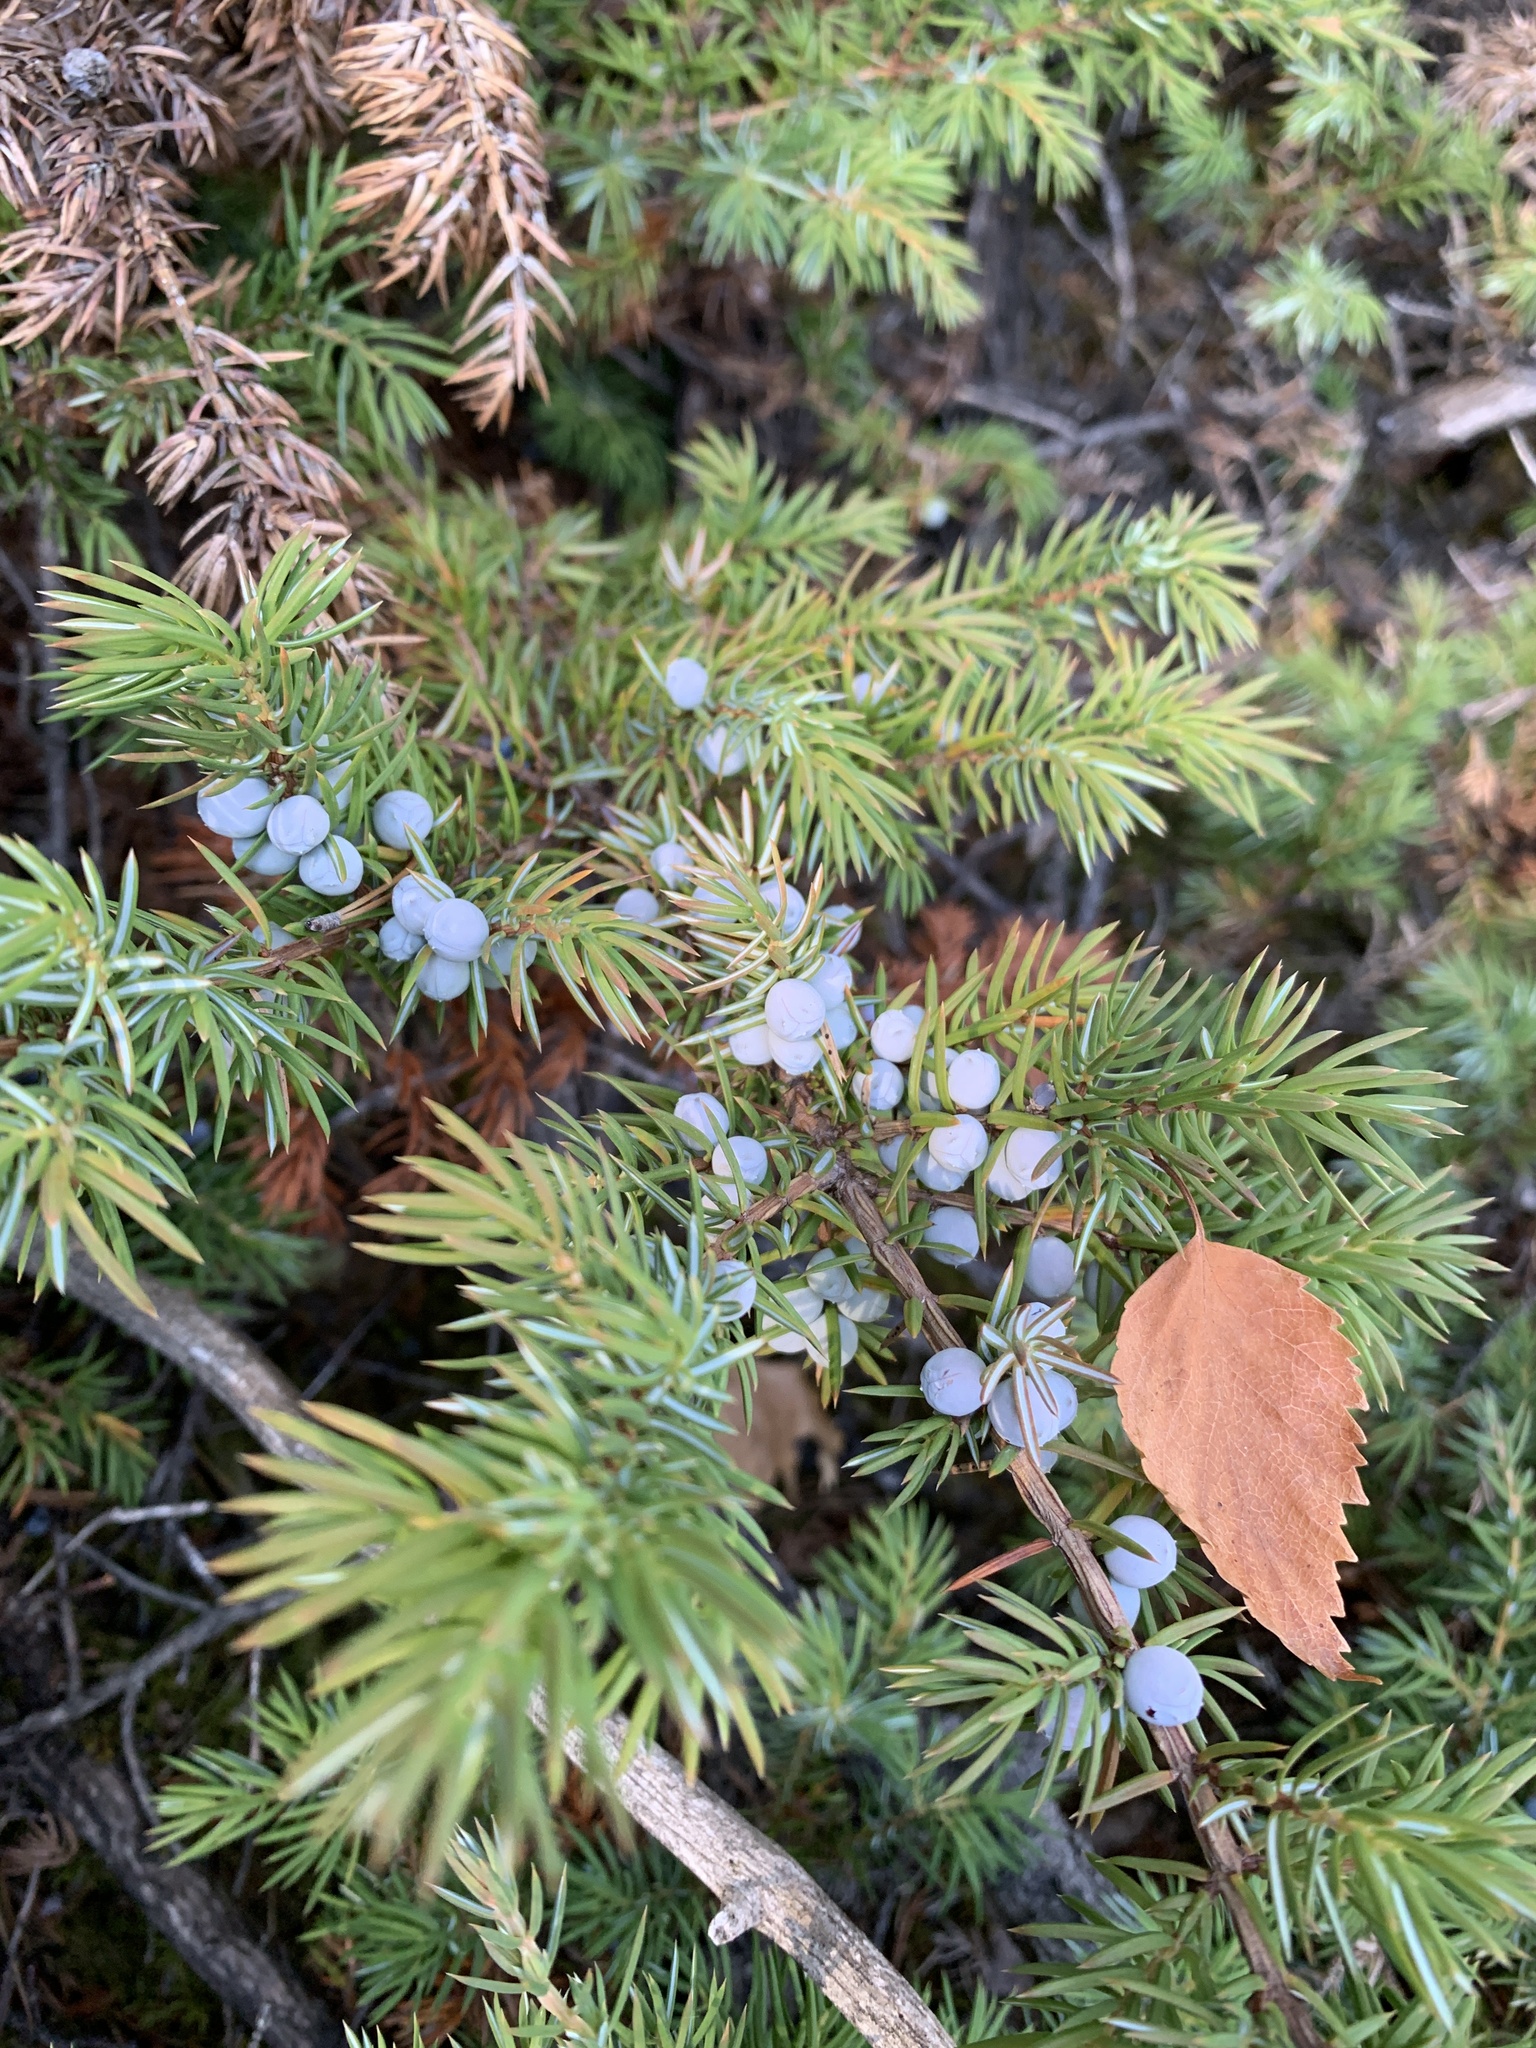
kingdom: Plantae
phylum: Tracheophyta
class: Pinopsida
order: Pinales
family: Cupressaceae
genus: Juniperus
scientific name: Juniperus communis
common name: Common juniper
